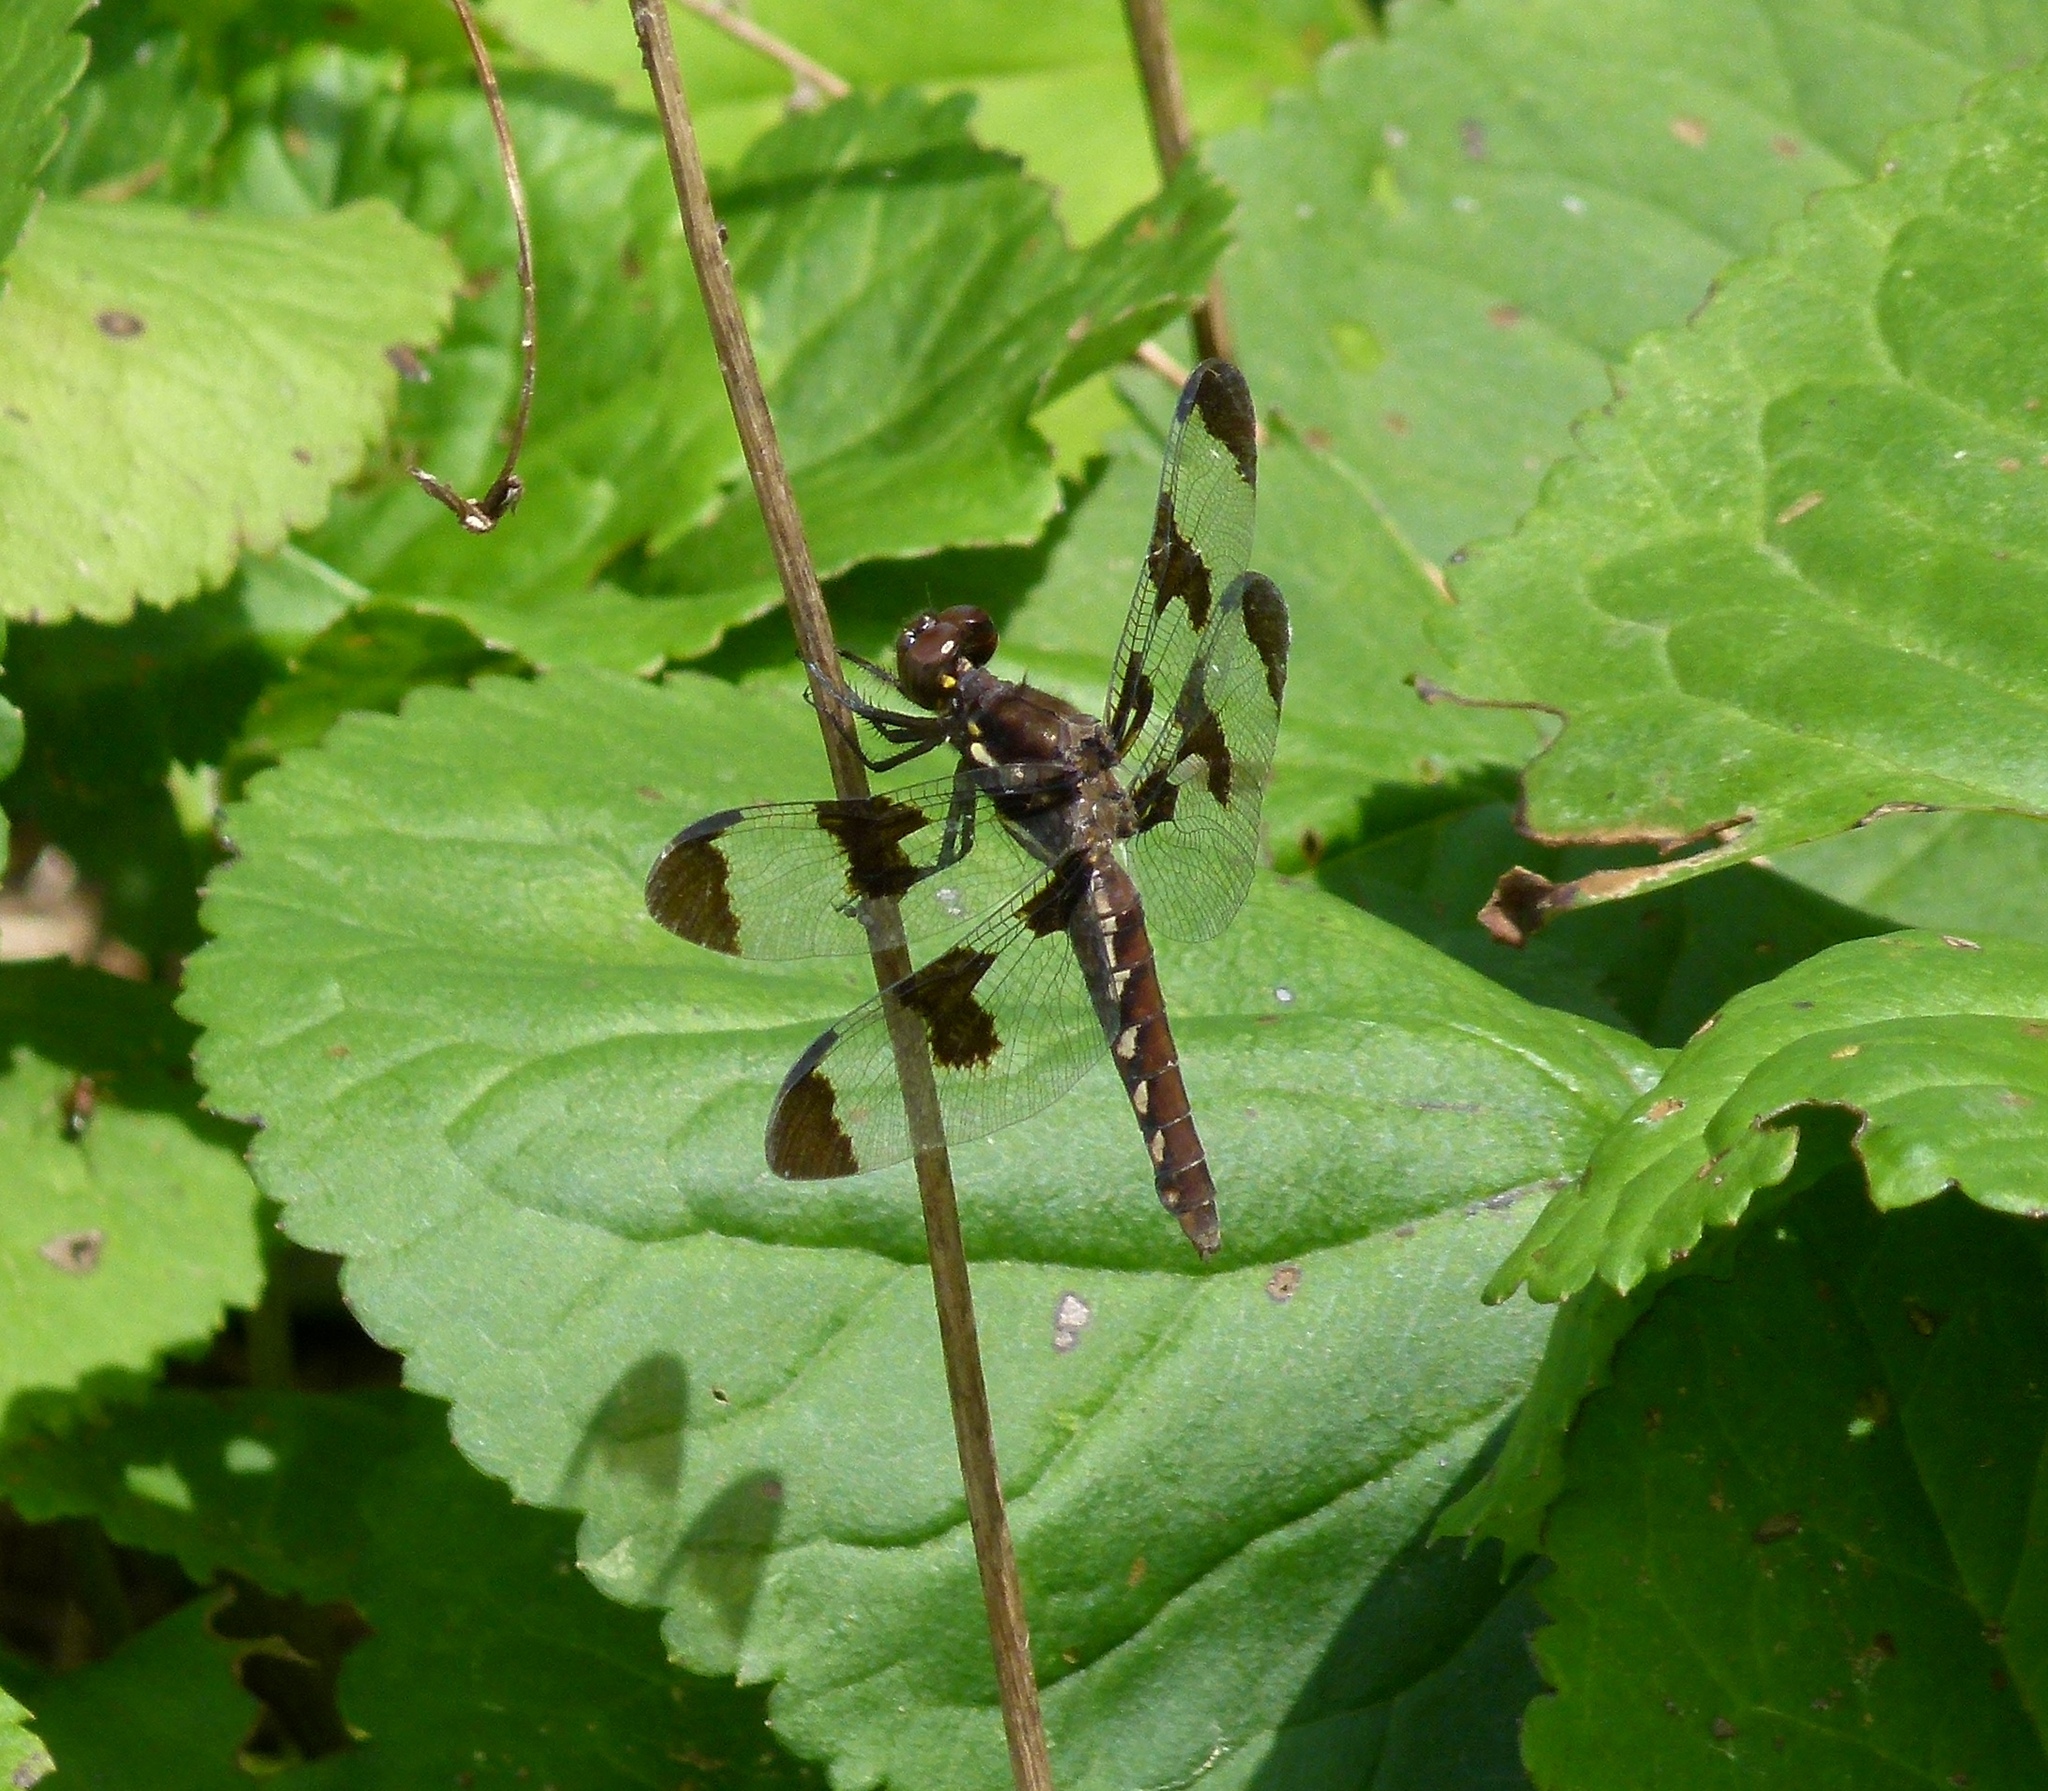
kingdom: Animalia
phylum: Arthropoda
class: Insecta
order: Odonata
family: Libellulidae
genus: Plathemis
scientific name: Plathemis lydia
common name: Common whitetail
